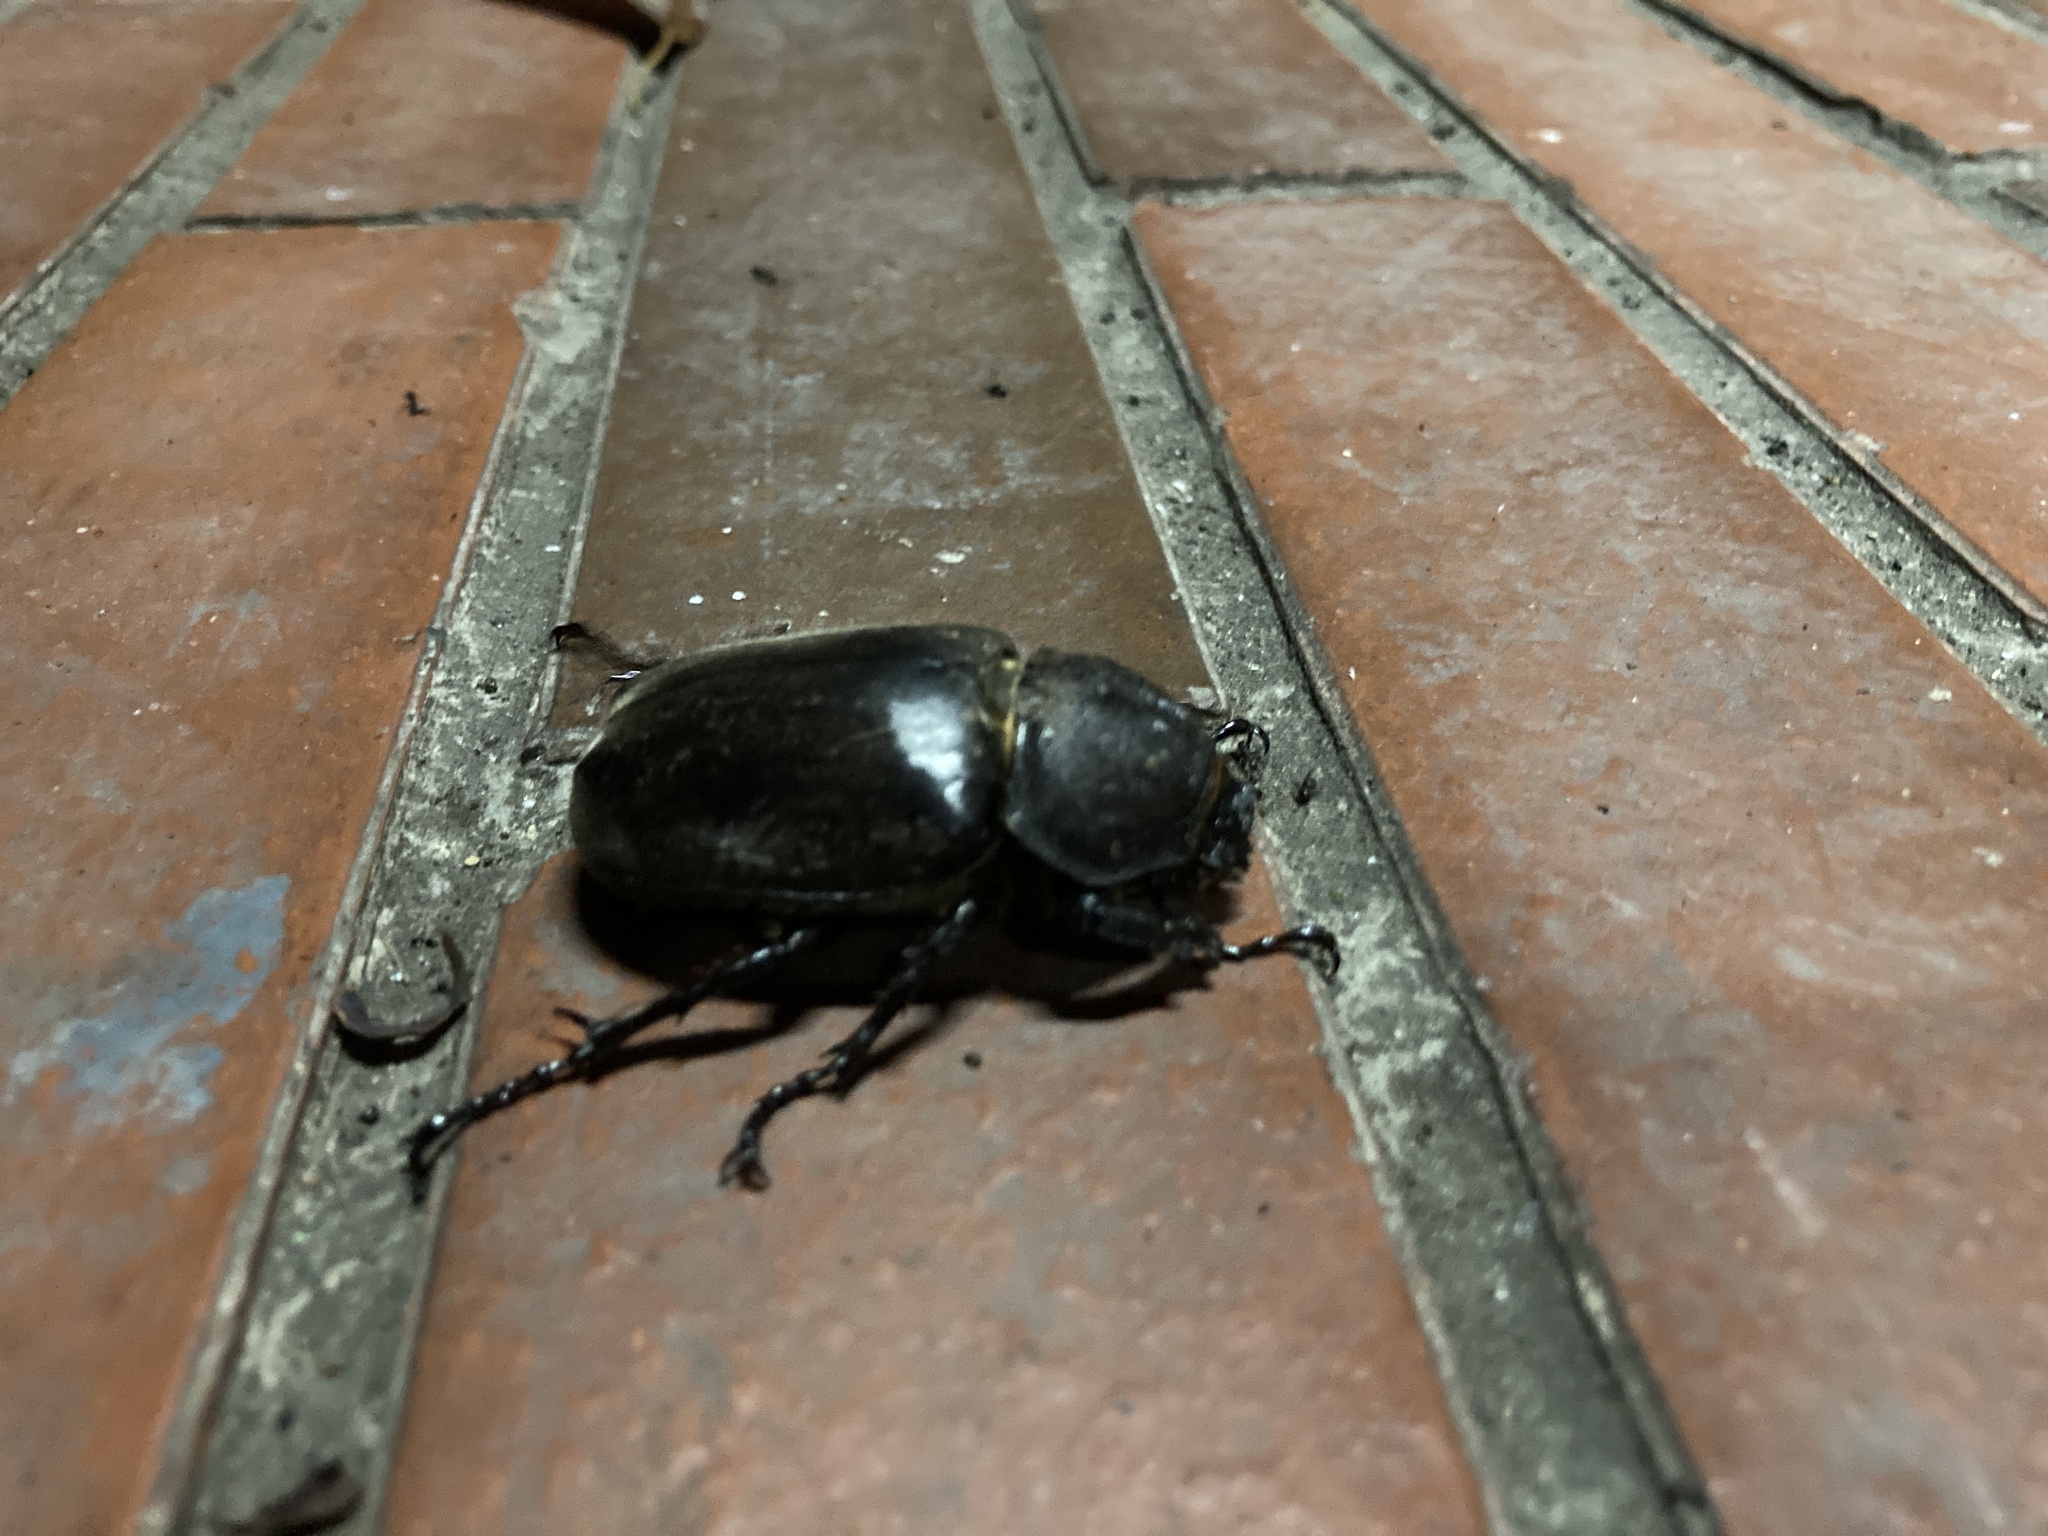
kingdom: Animalia
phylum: Arthropoda
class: Insecta
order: Coleoptera
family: Scarabaeidae
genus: Trypoxylus
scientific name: Trypoxylus dichotomus
